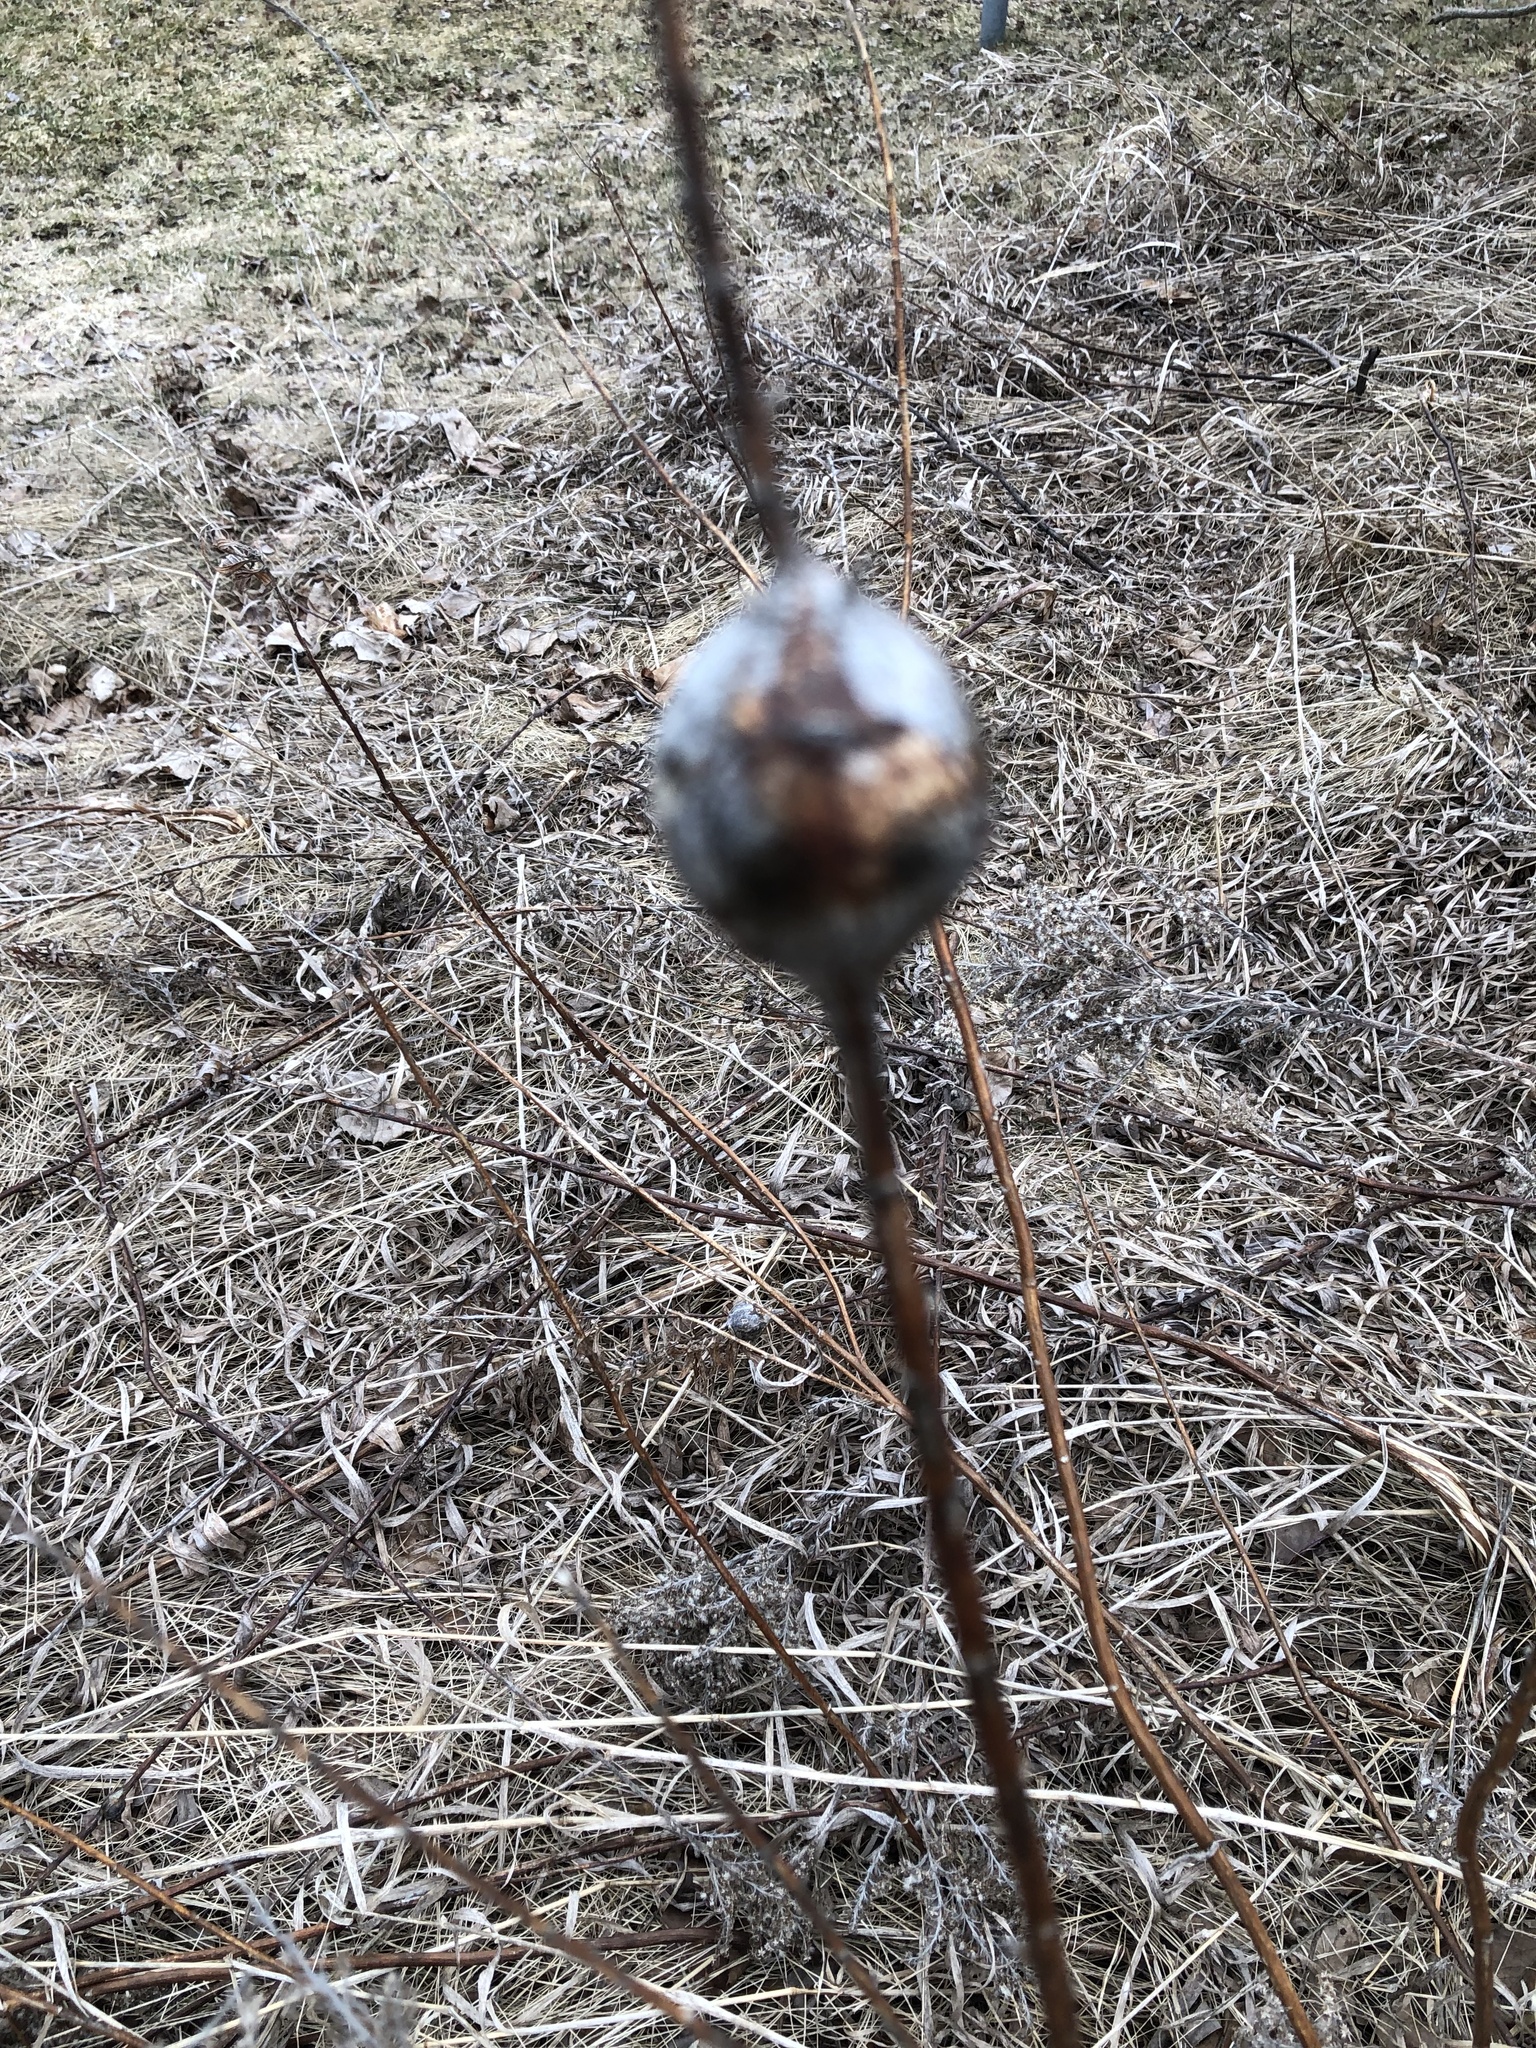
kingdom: Animalia
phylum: Arthropoda
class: Insecta
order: Diptera
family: Tephritidae
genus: Eurosta
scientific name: Eurosta solidaginis
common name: Goldenrod gall fly
